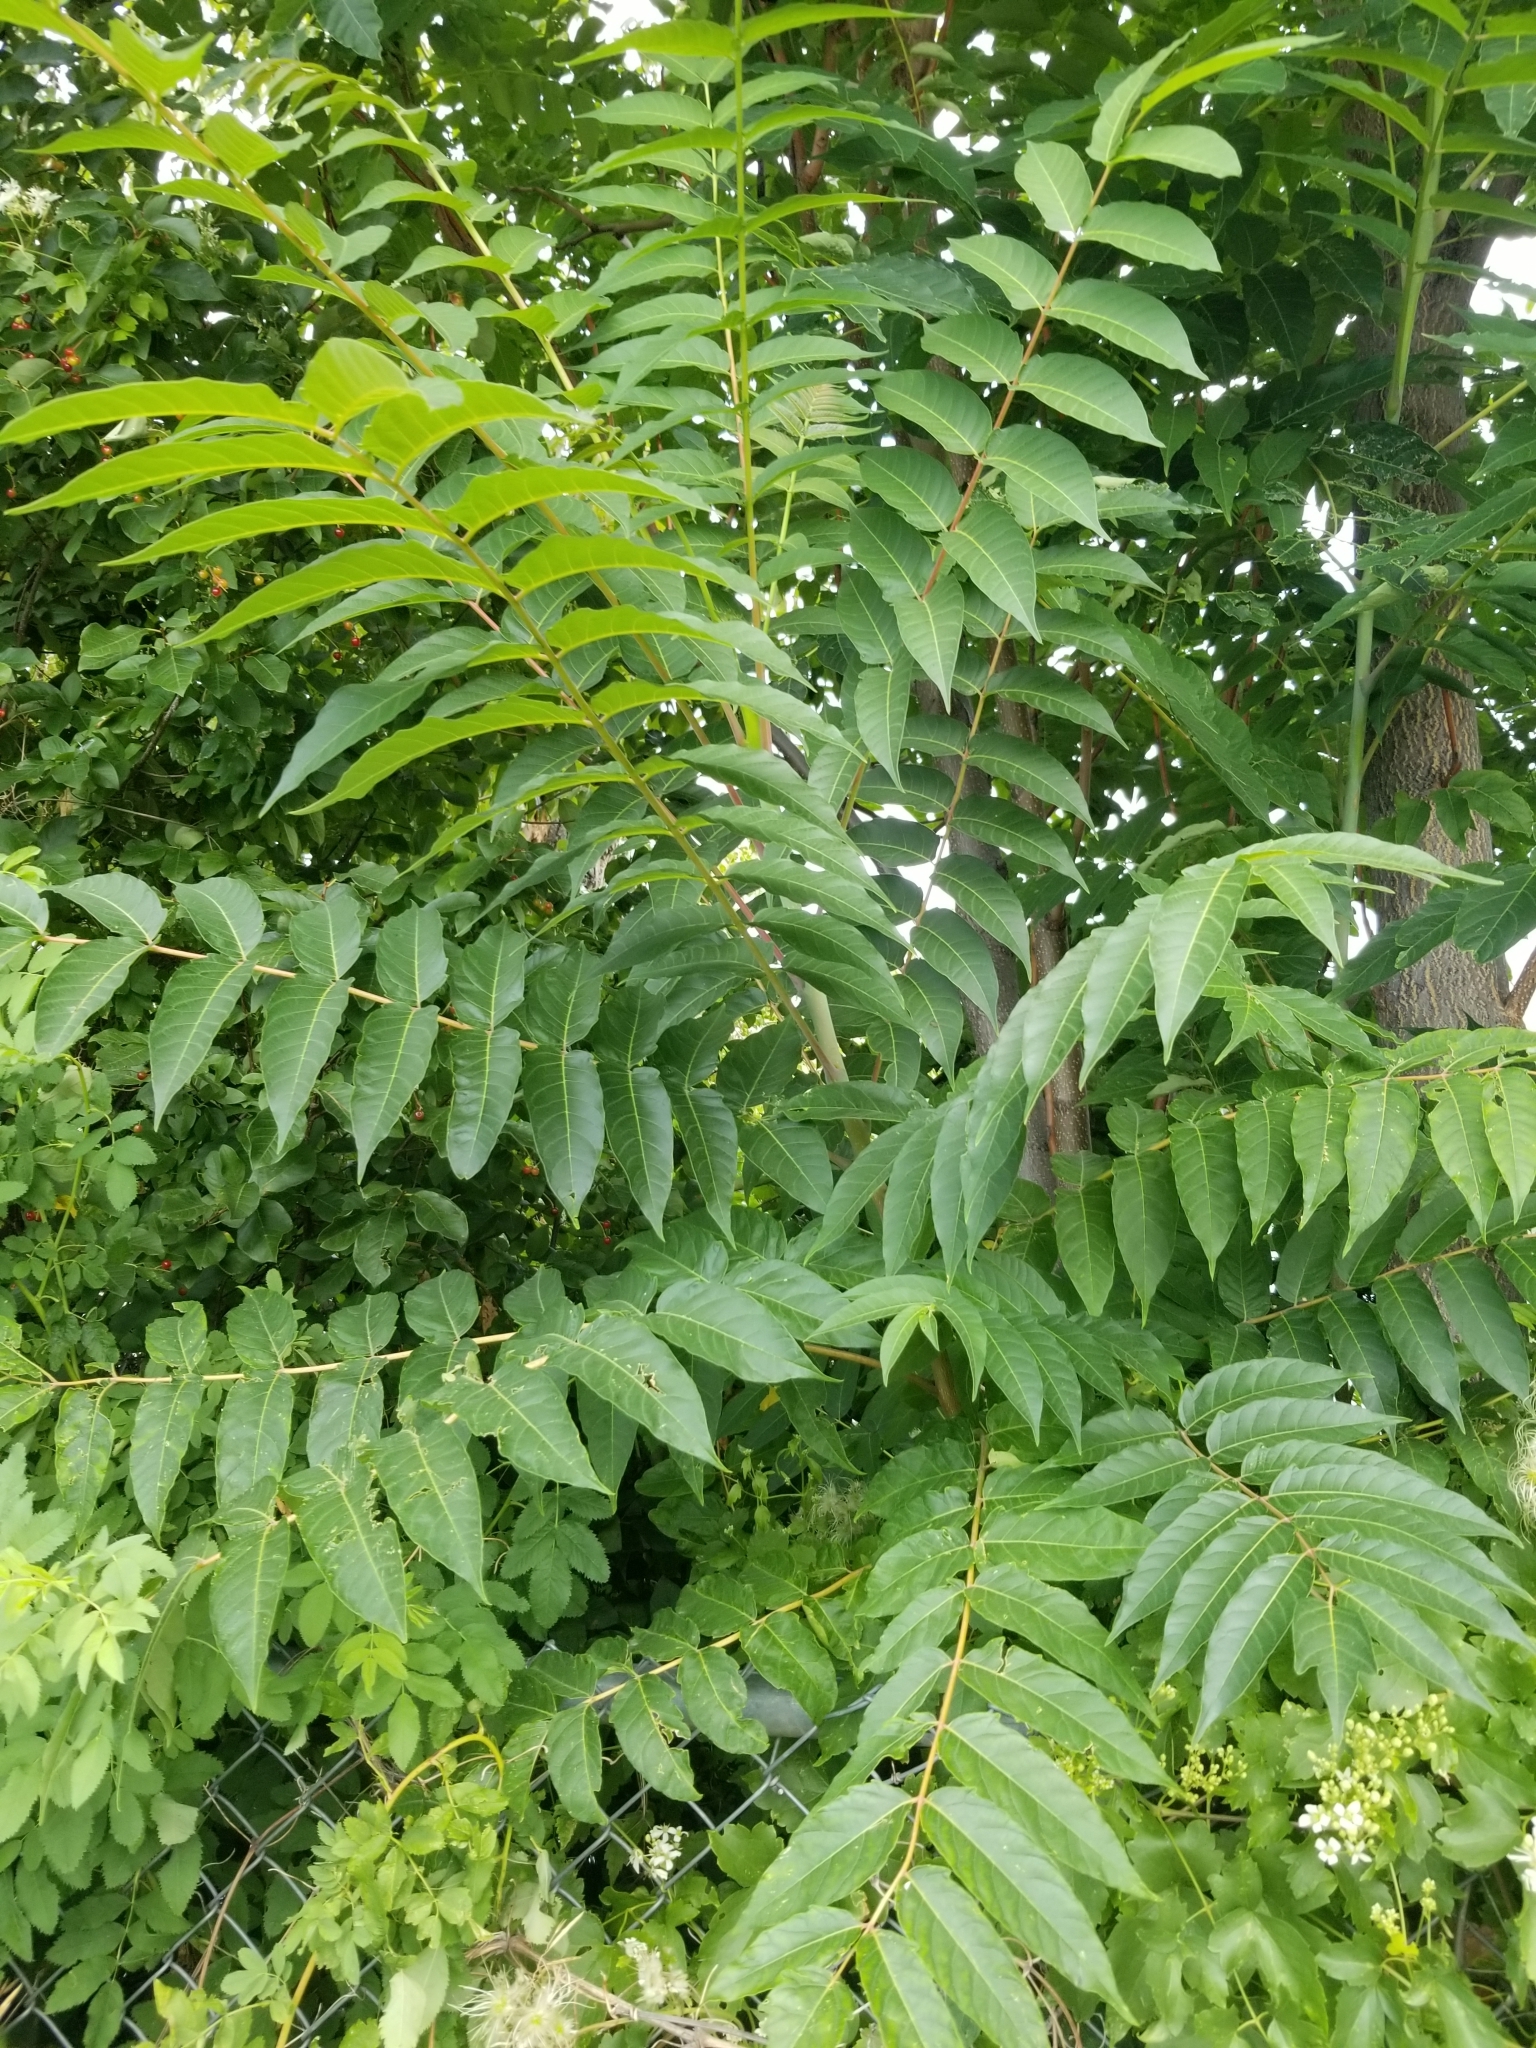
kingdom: Plantae
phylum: Tracheophyta
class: Magnoliopsida
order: Sapindales
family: Simaroubaceae
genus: Ailanthus
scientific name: Ailanthus altissima
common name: Tree-of-heaven
